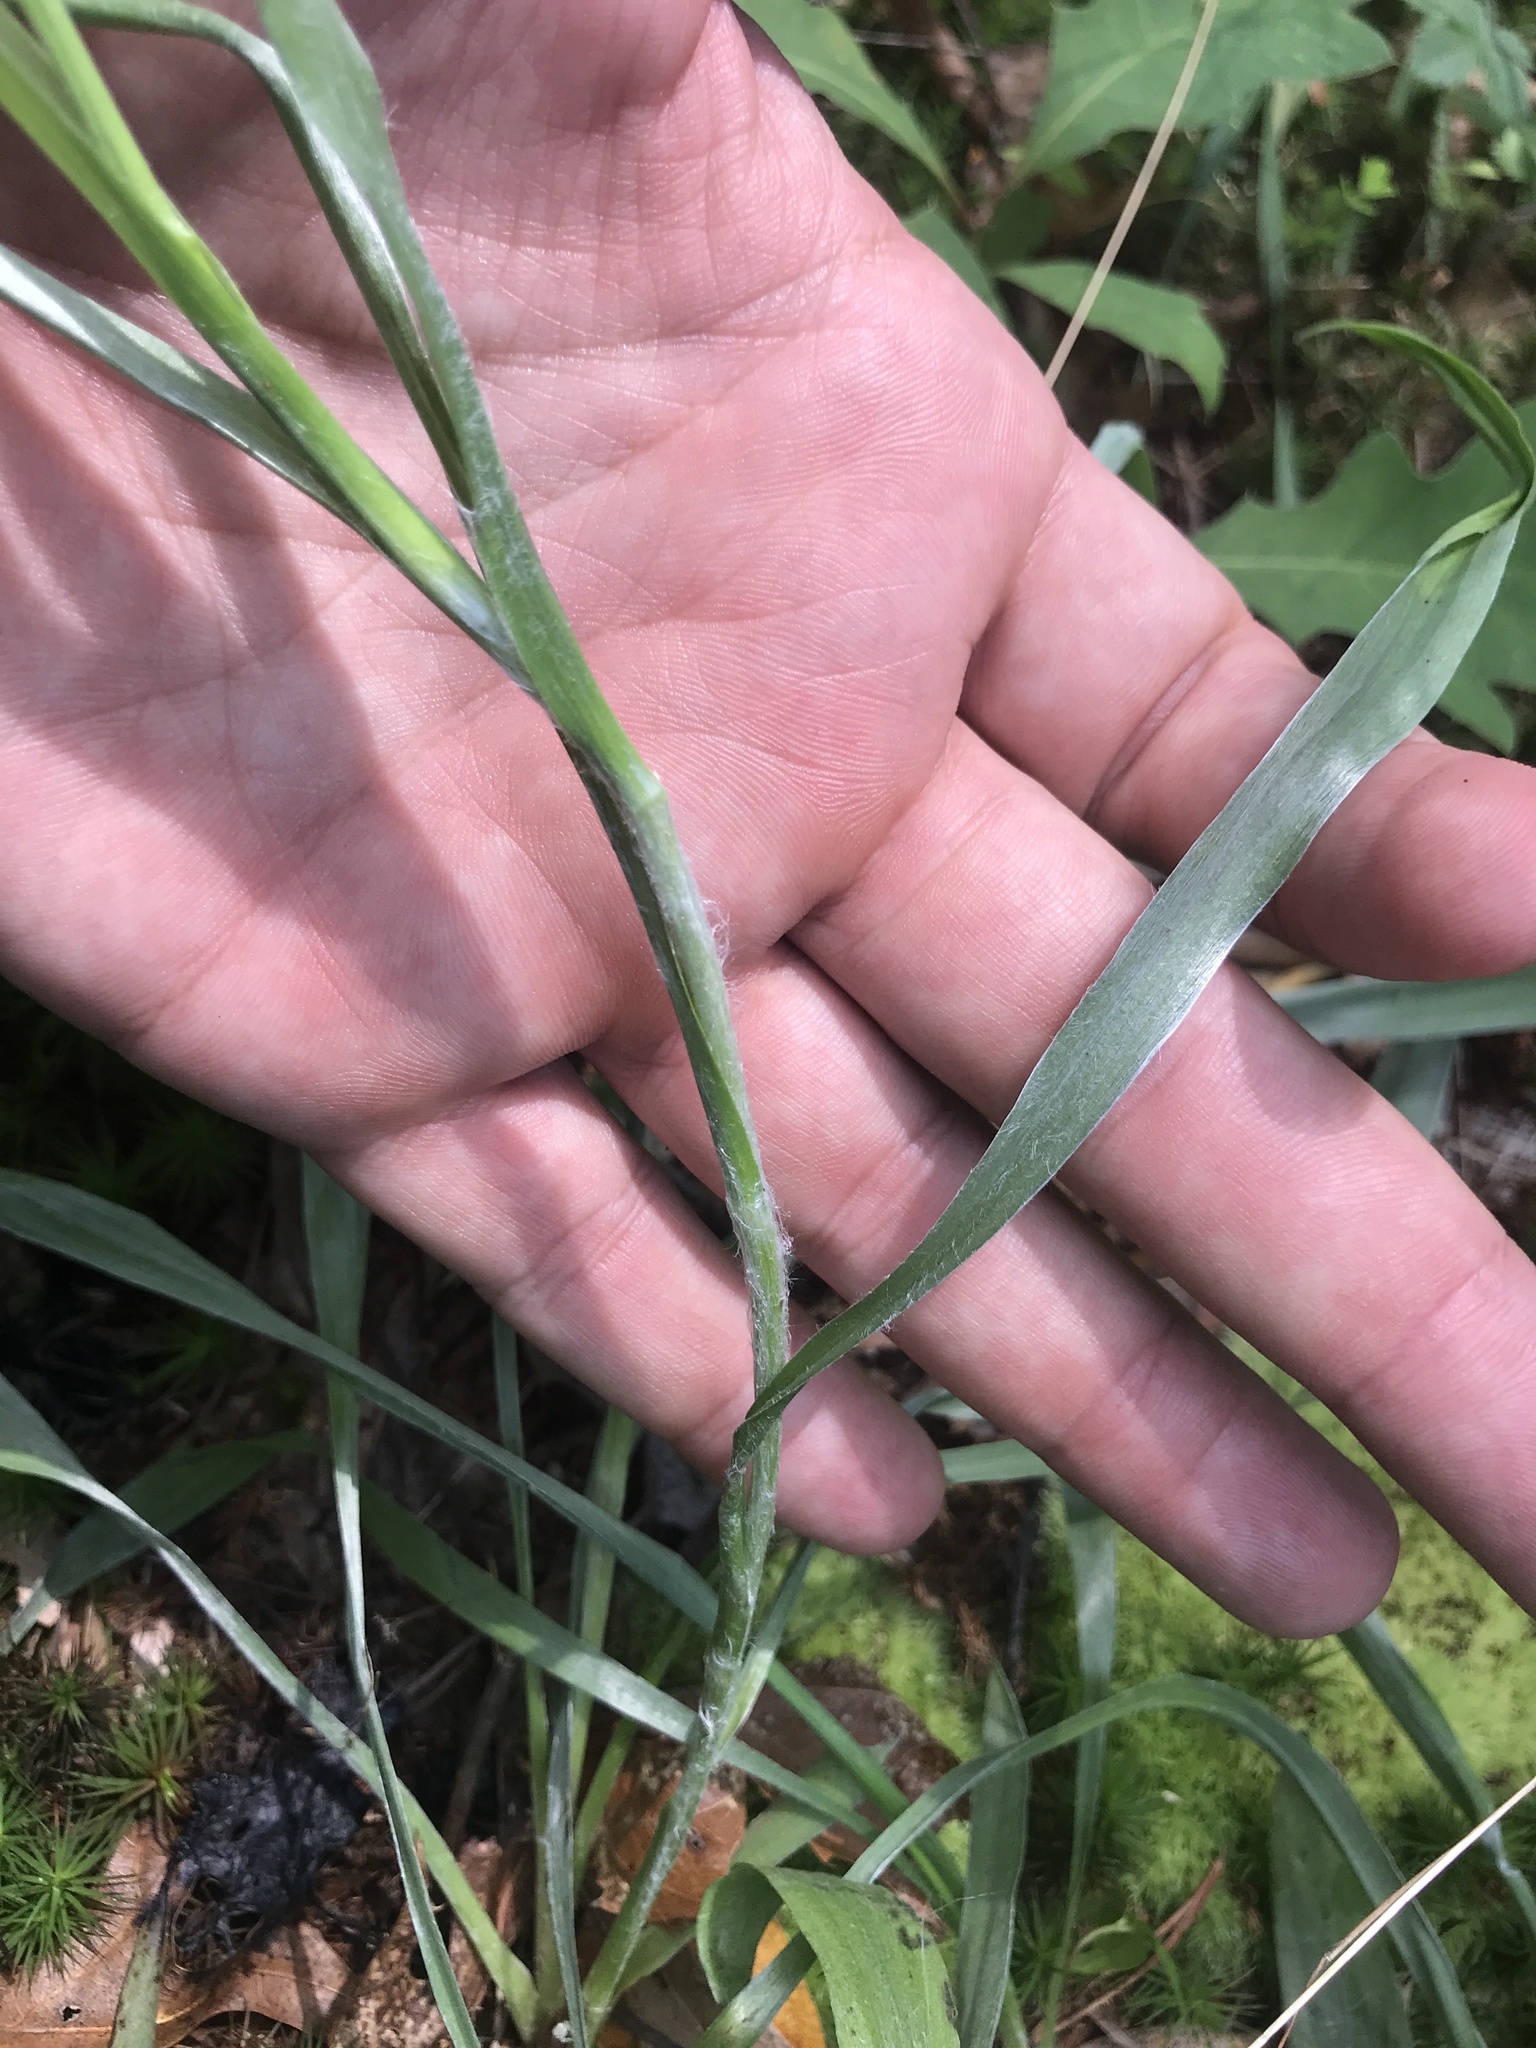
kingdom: Plantae
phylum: Tracheophyta
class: Magnoliopsida
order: Asterales
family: Asteraceae
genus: Pityopsis
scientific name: Pityopsis graminifolia
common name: Grass-leaf golden-aster
